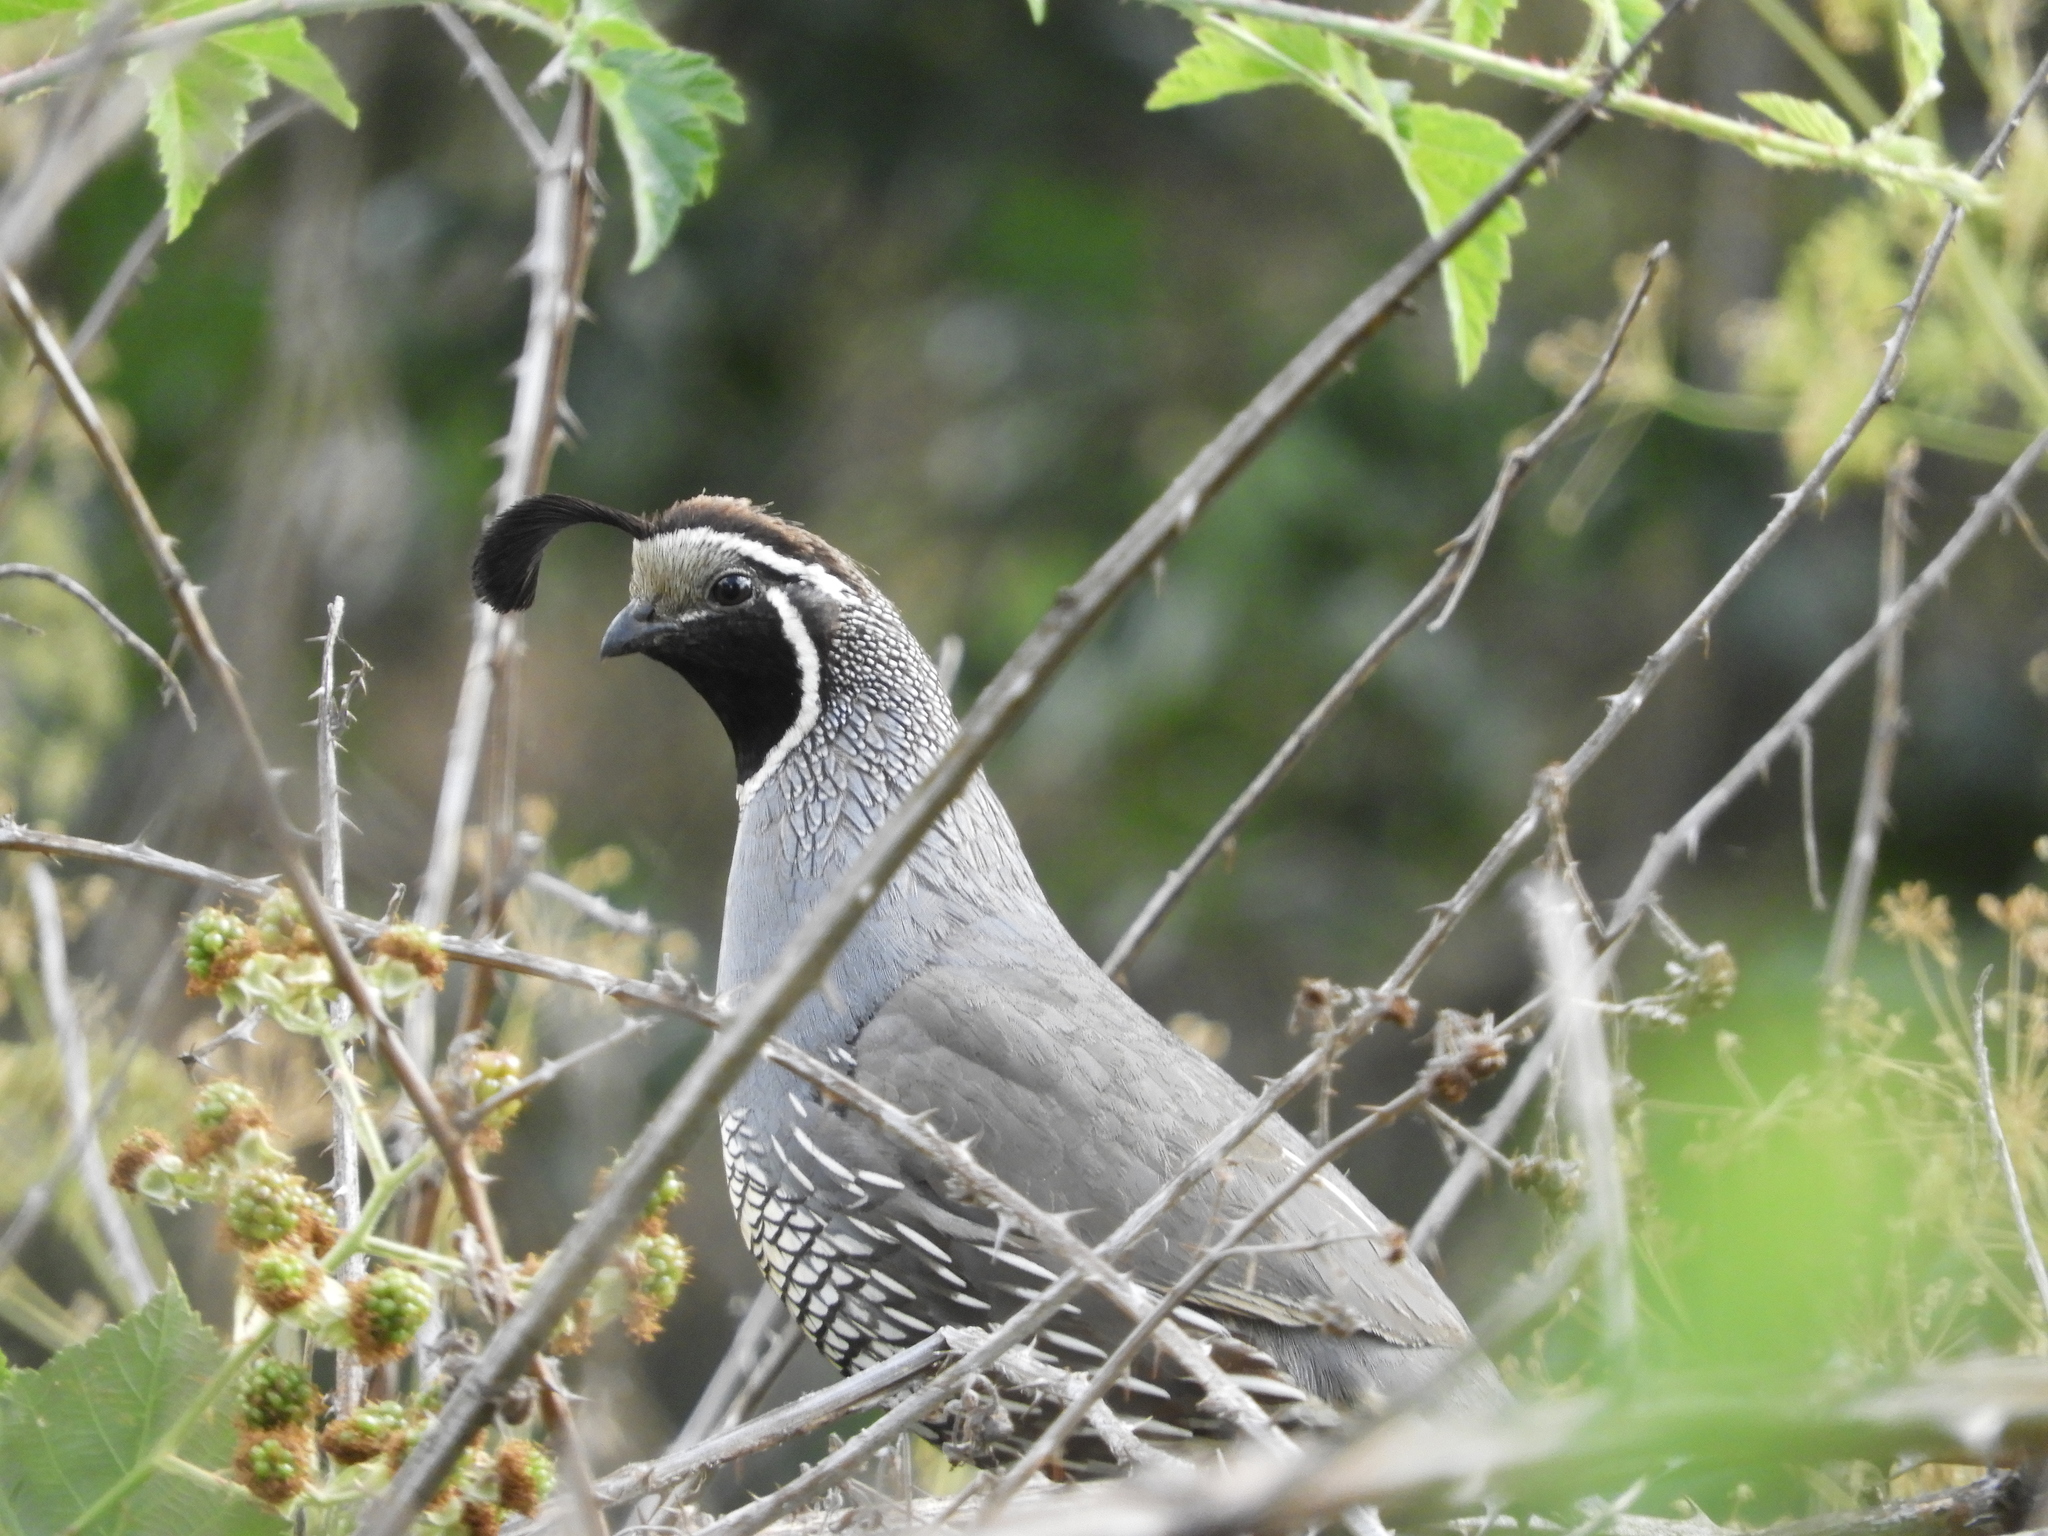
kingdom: Animalia
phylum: Chordata
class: Aves
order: Galliformes
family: Odontophoridae
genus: Callipepla
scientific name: Callipepla californica
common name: California quail
